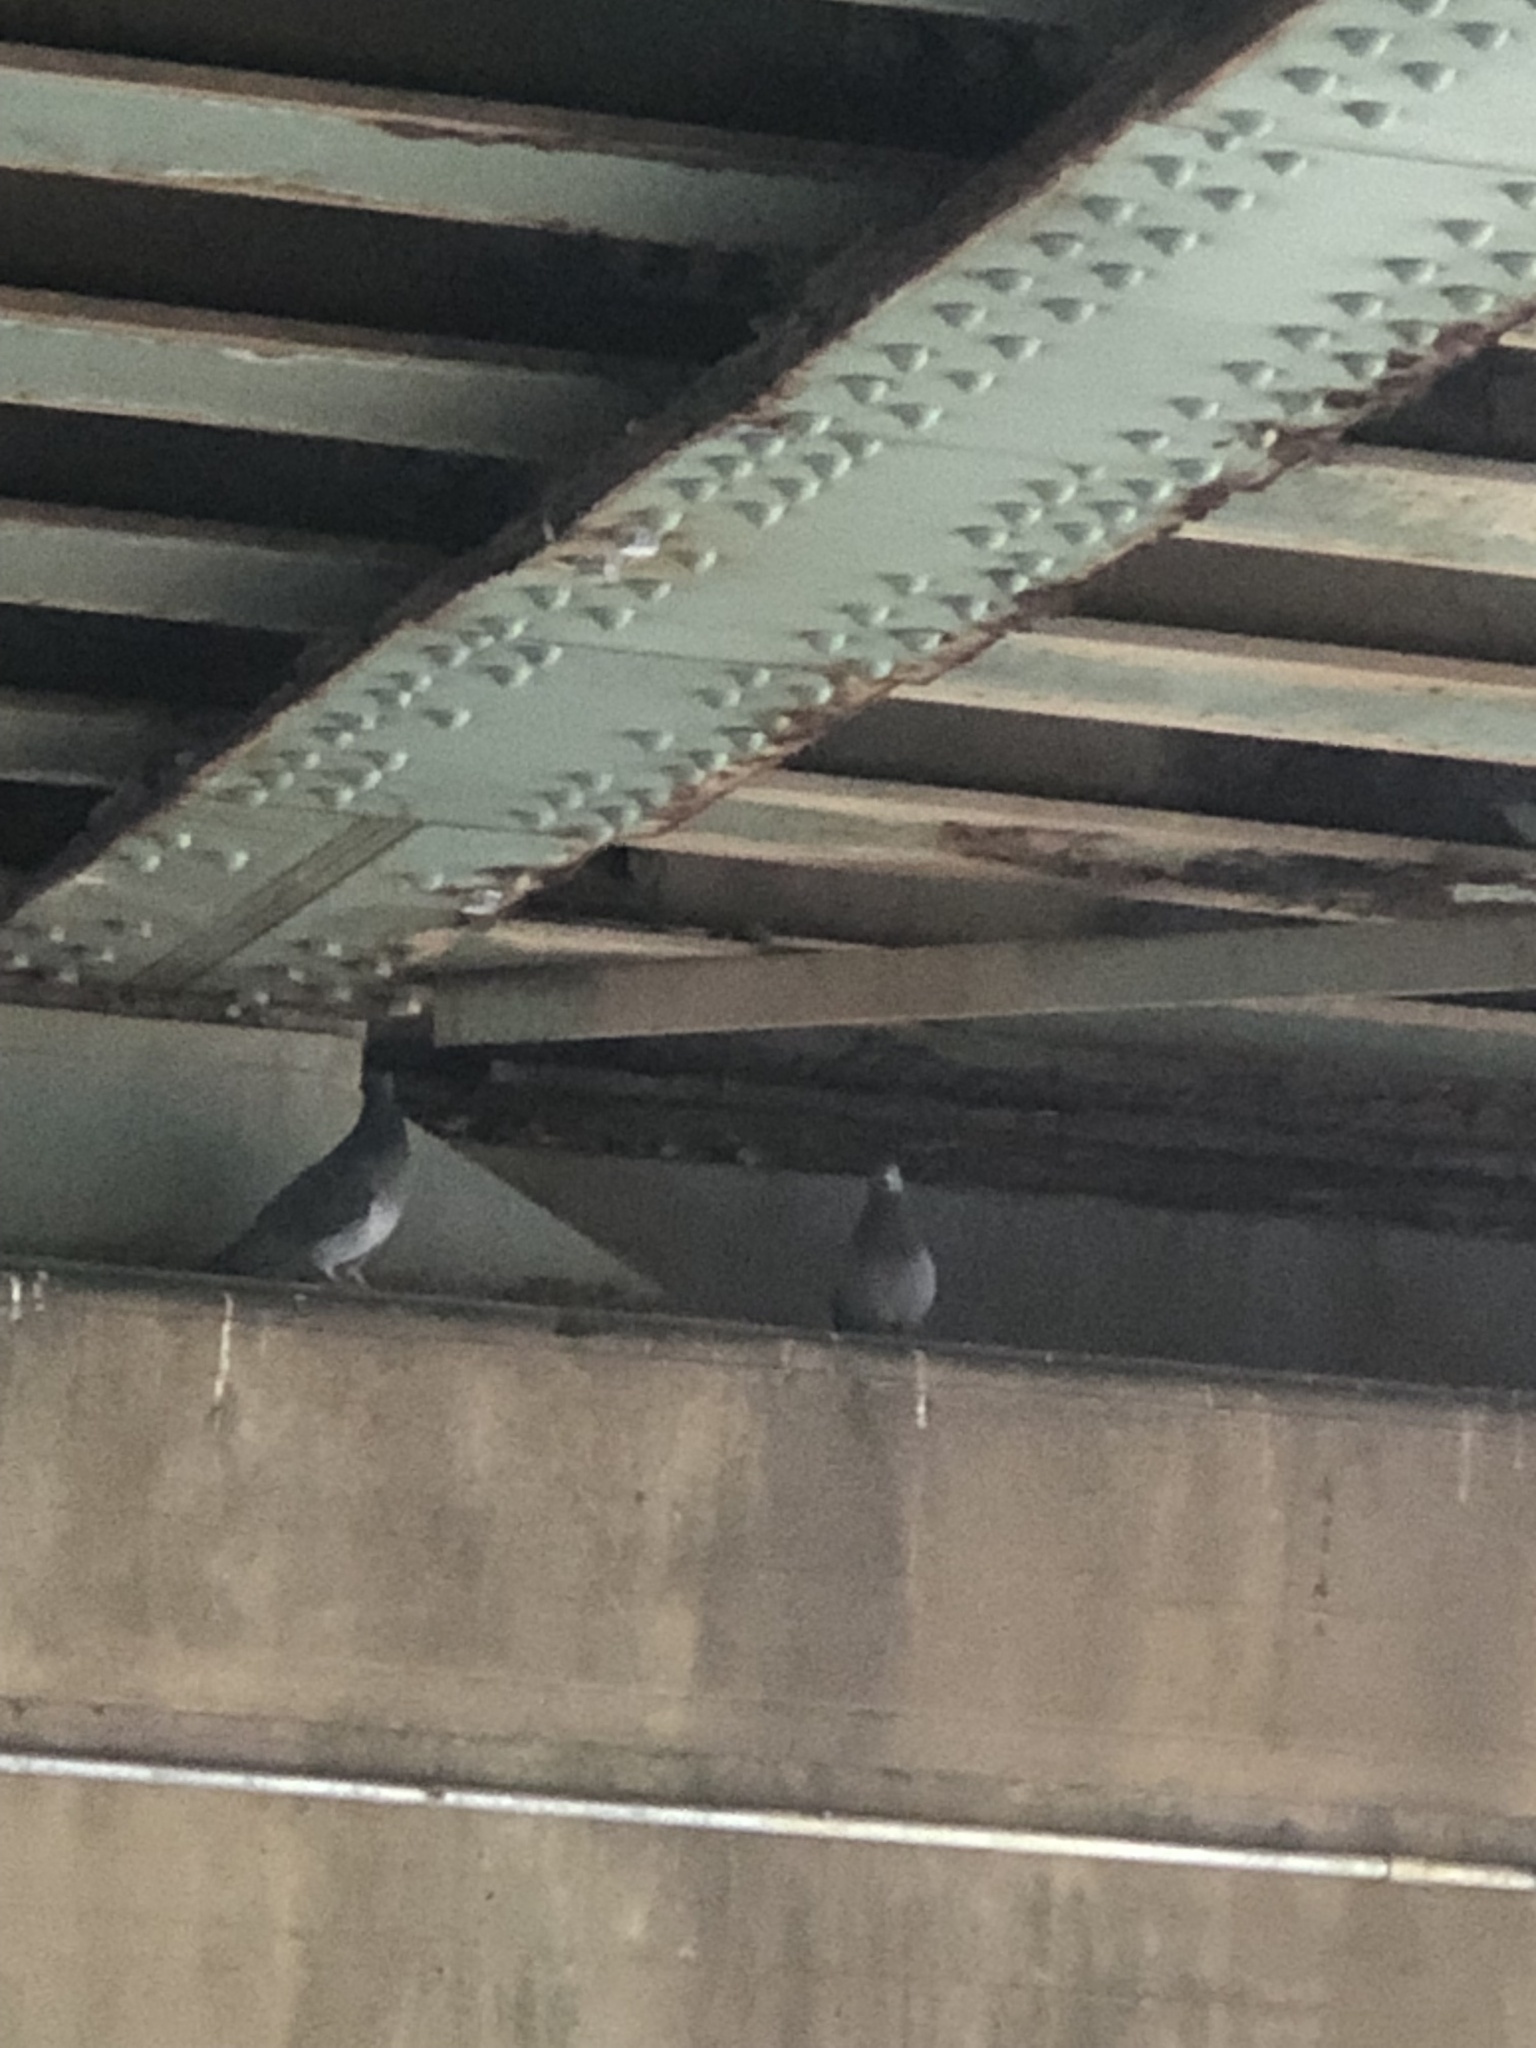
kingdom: Animalia
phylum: Chordata
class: Aves
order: Columbiformes
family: Columbidae
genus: Columba
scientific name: Columba livia
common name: Rock pigeon
